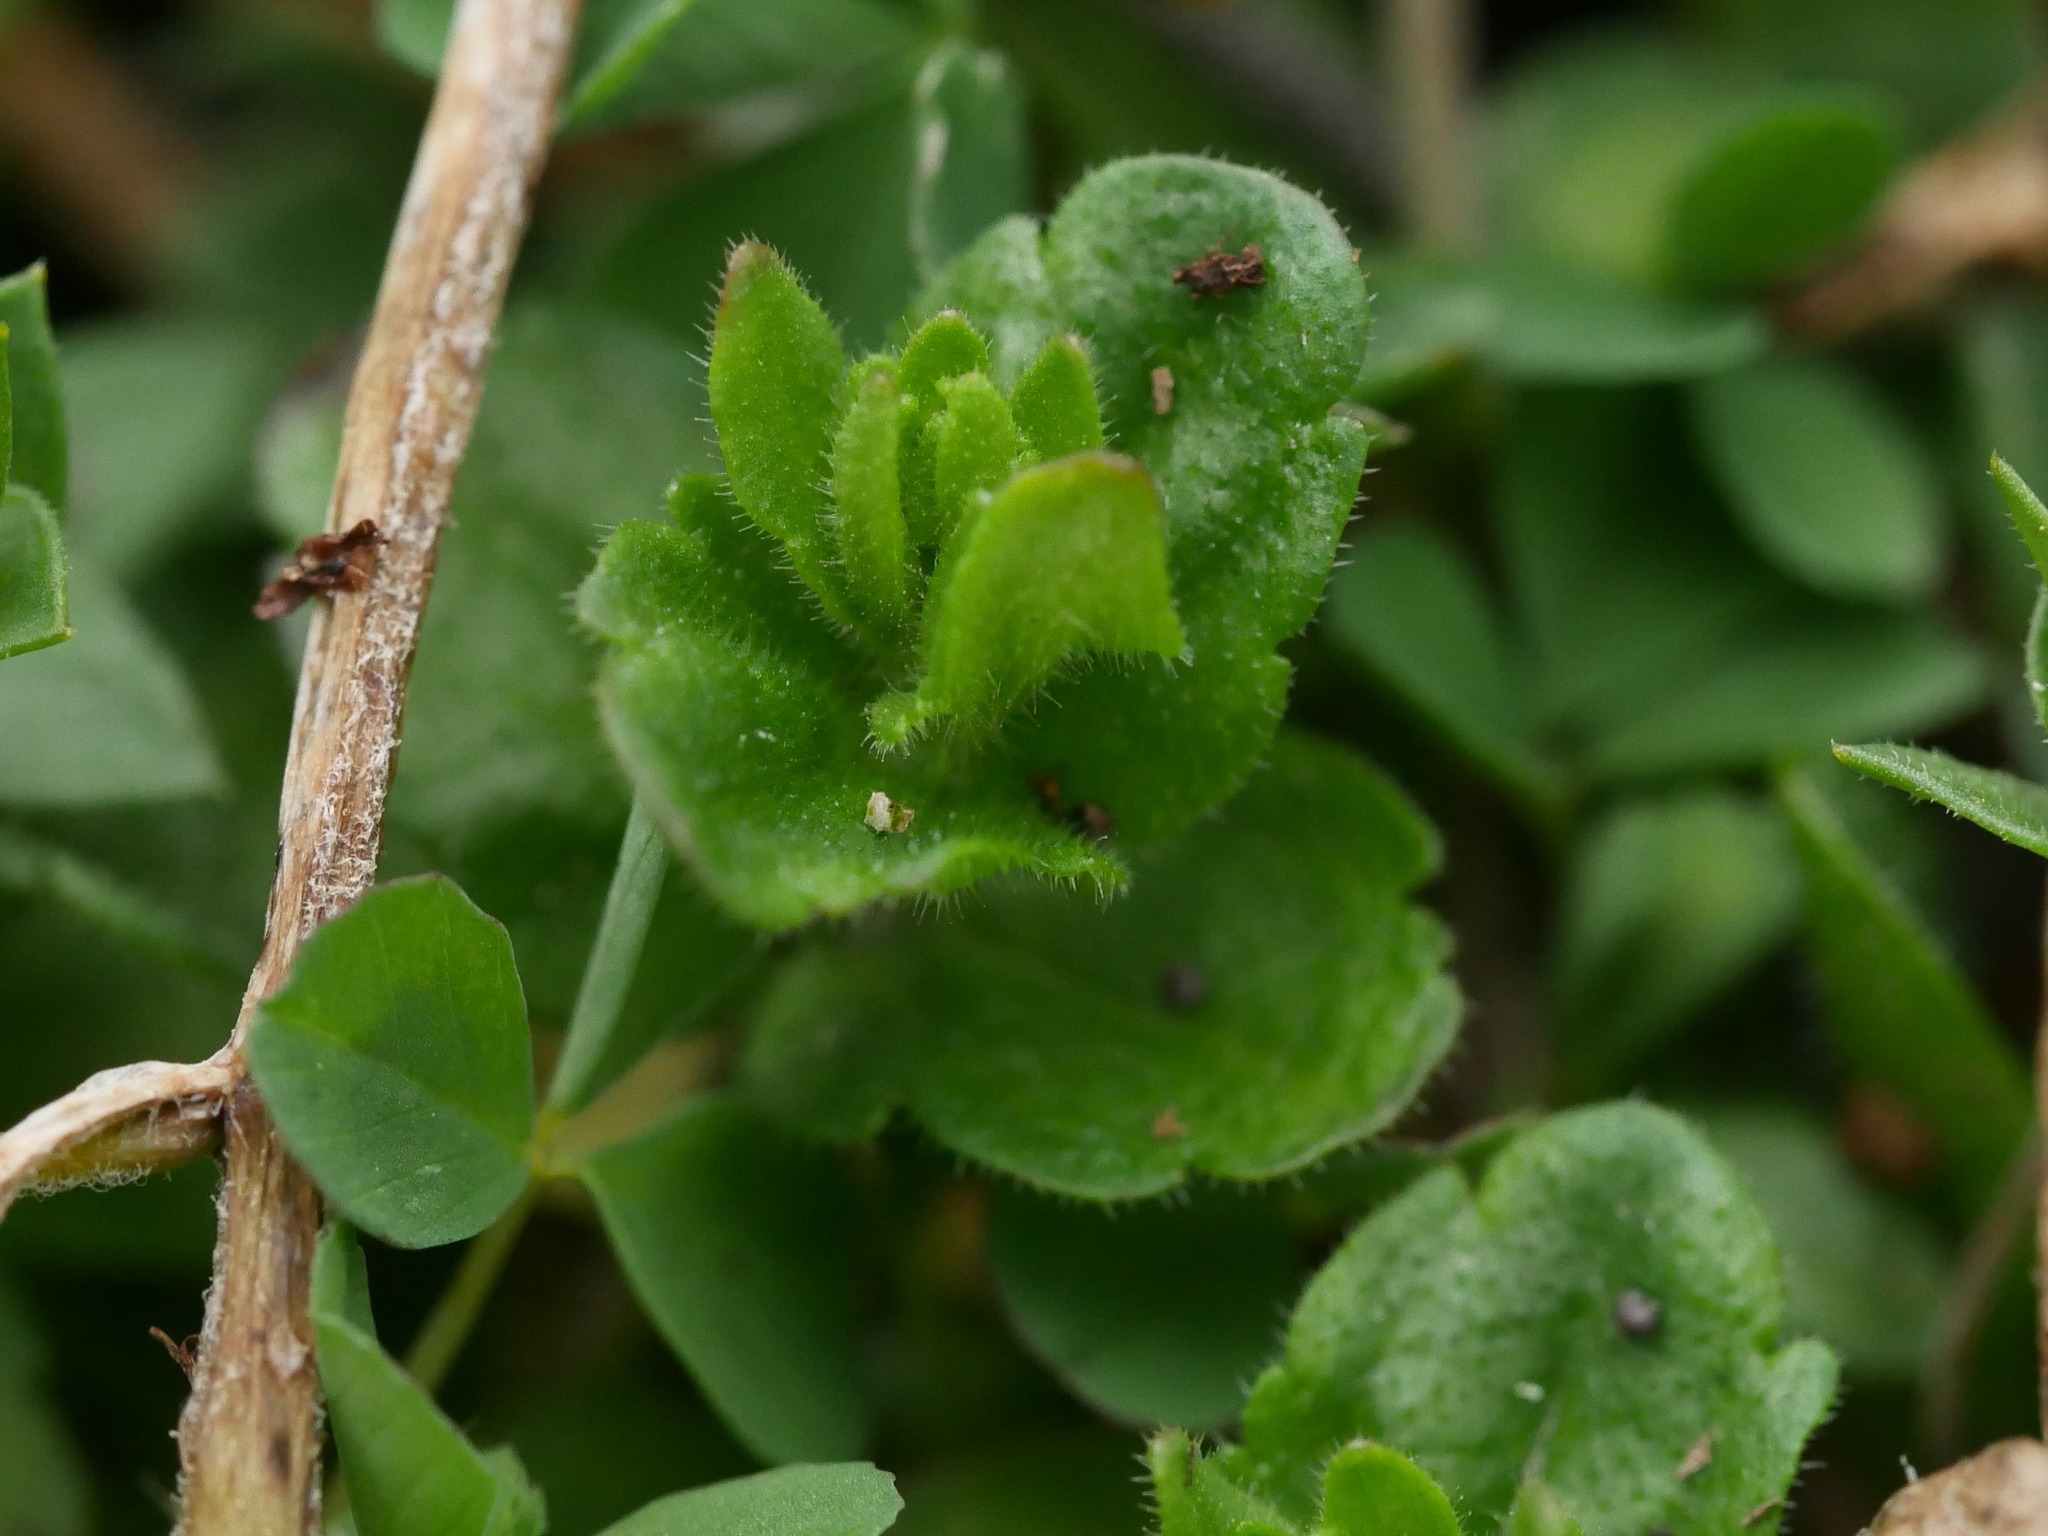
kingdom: Plantae
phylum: Tracheophyta
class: Magnoliopsida
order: Lamiales
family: Plantaginaceae
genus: Veronica
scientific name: Veronica arvensis
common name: Corn speedwell
